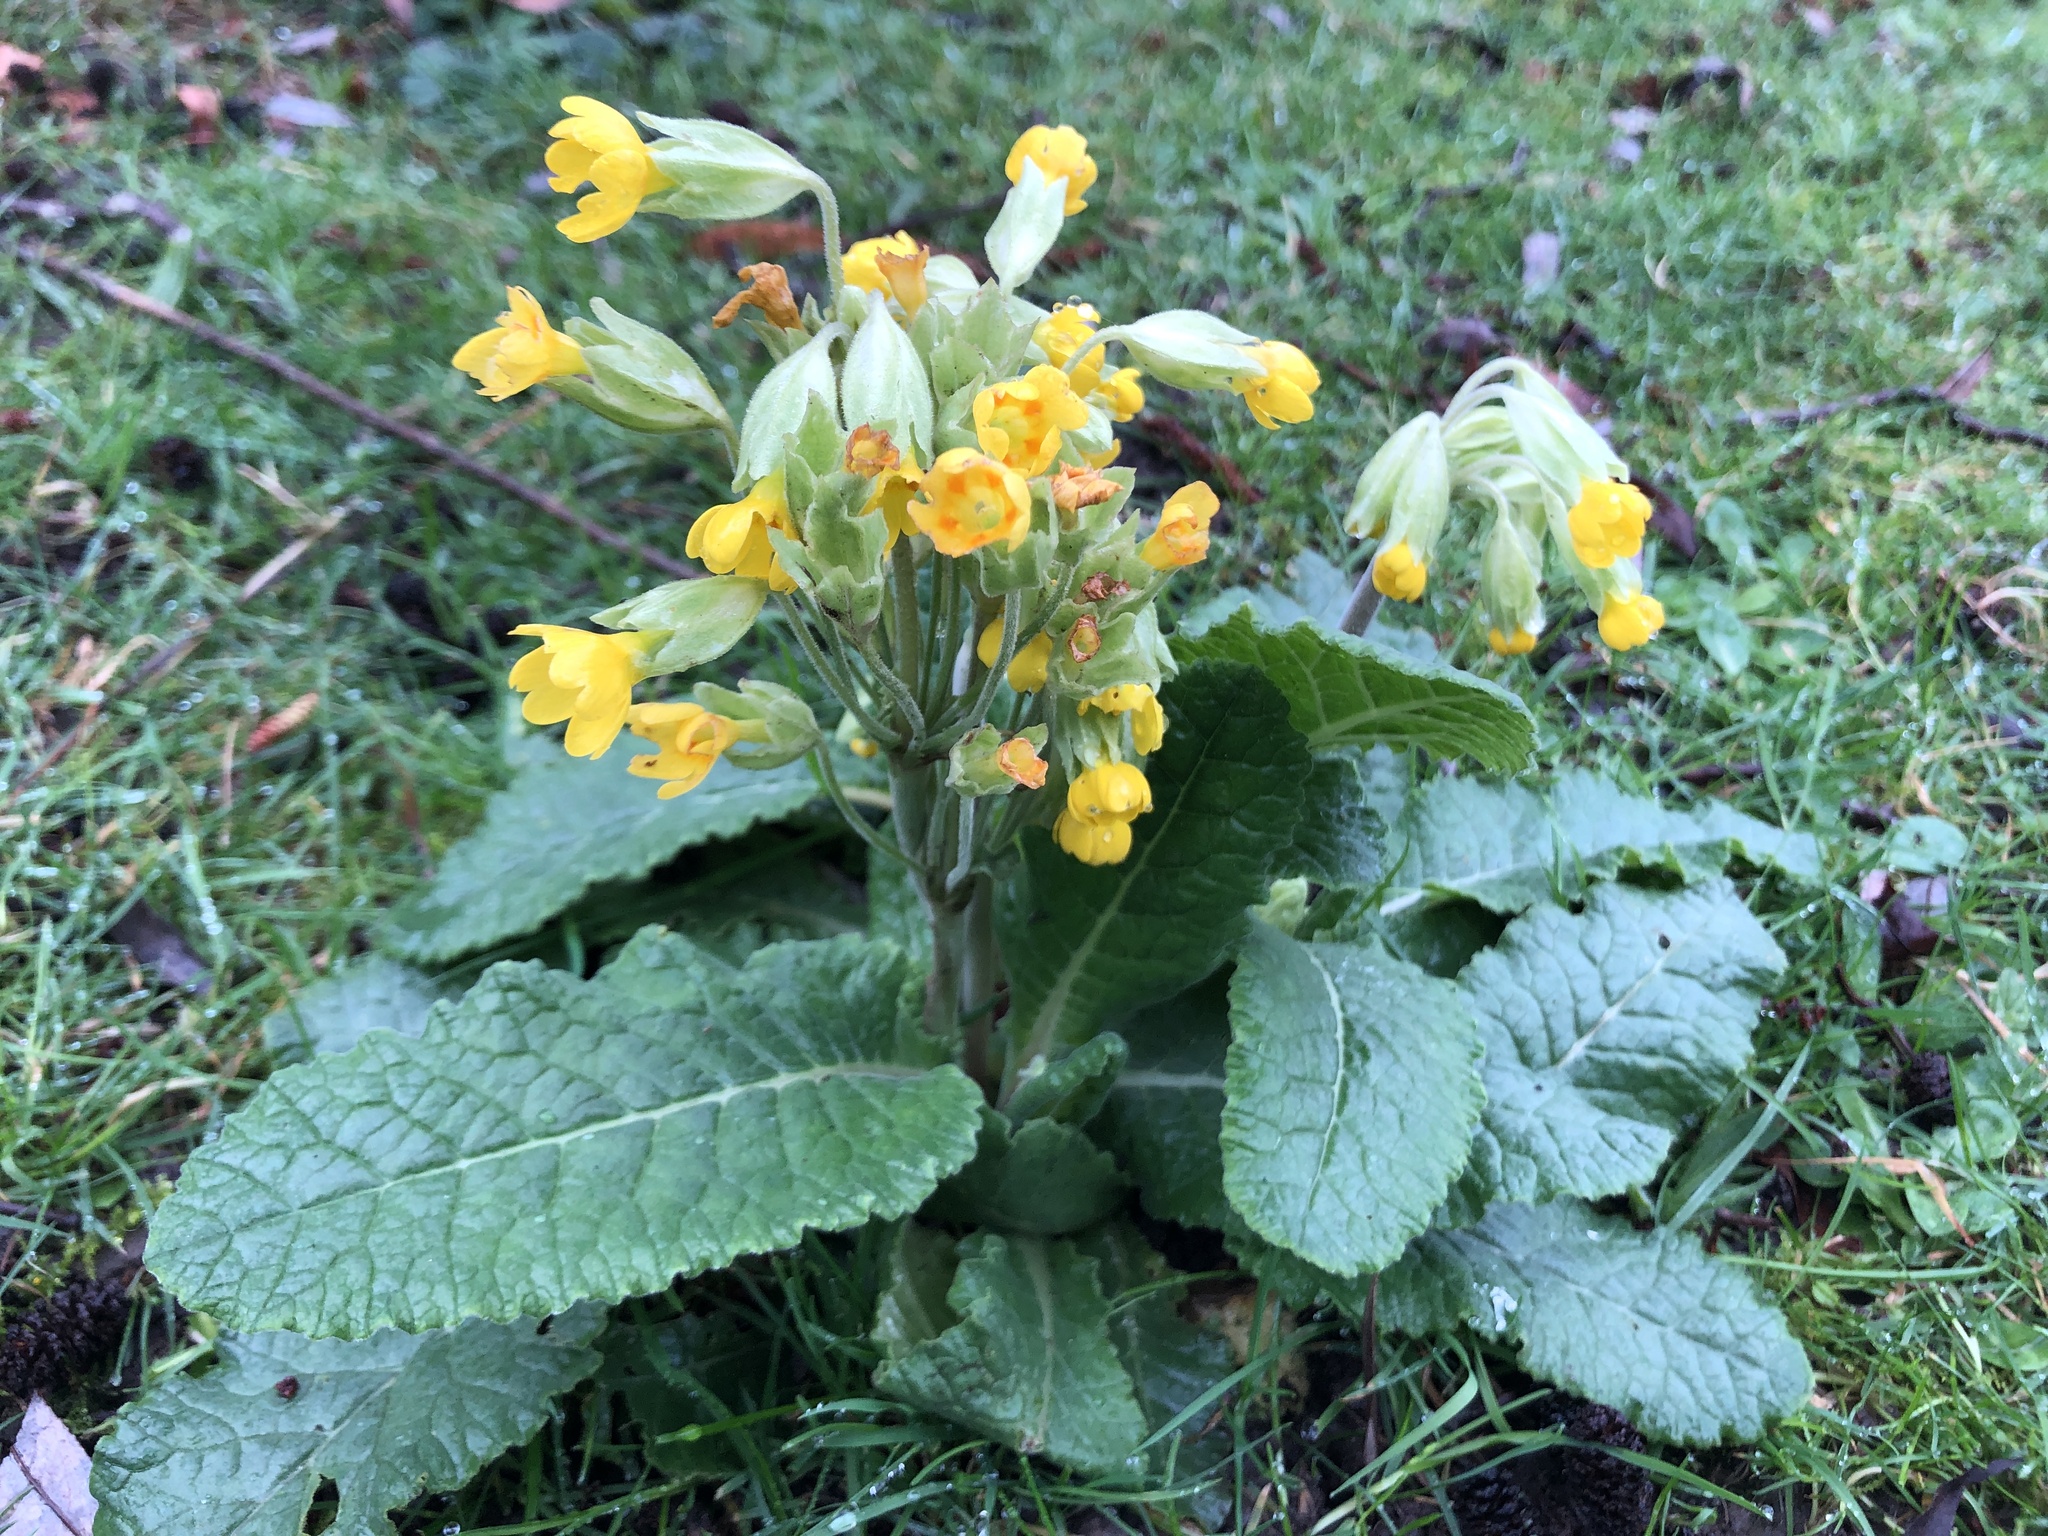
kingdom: Plantae
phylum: Tracheophyta
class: Magnoliopsida
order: Ericales
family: Primulaceae
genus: Primula
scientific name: Primula veris
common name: Cowslip
